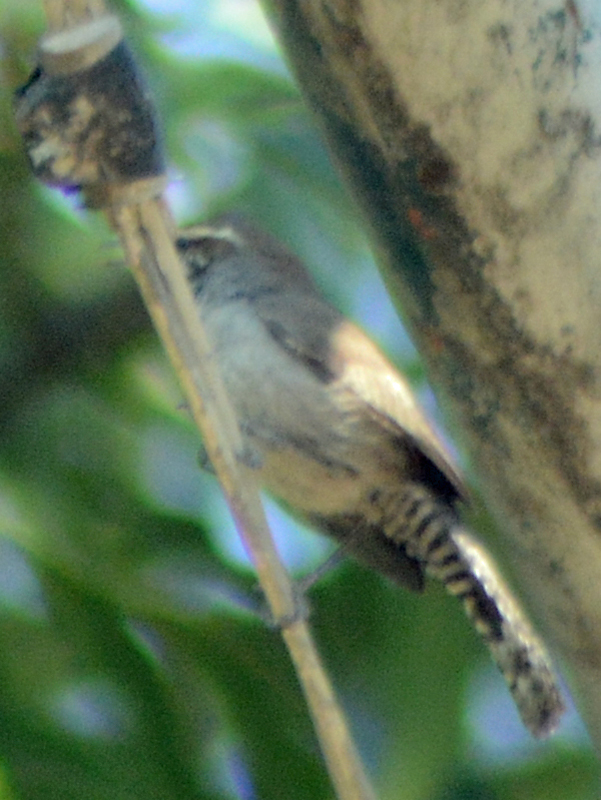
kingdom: Animalia
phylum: Chordata
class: Aves
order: Passeriformes
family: Troglodytidae
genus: Thryomanes
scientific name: Thryomanes bewickii
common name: Bewick's wren
